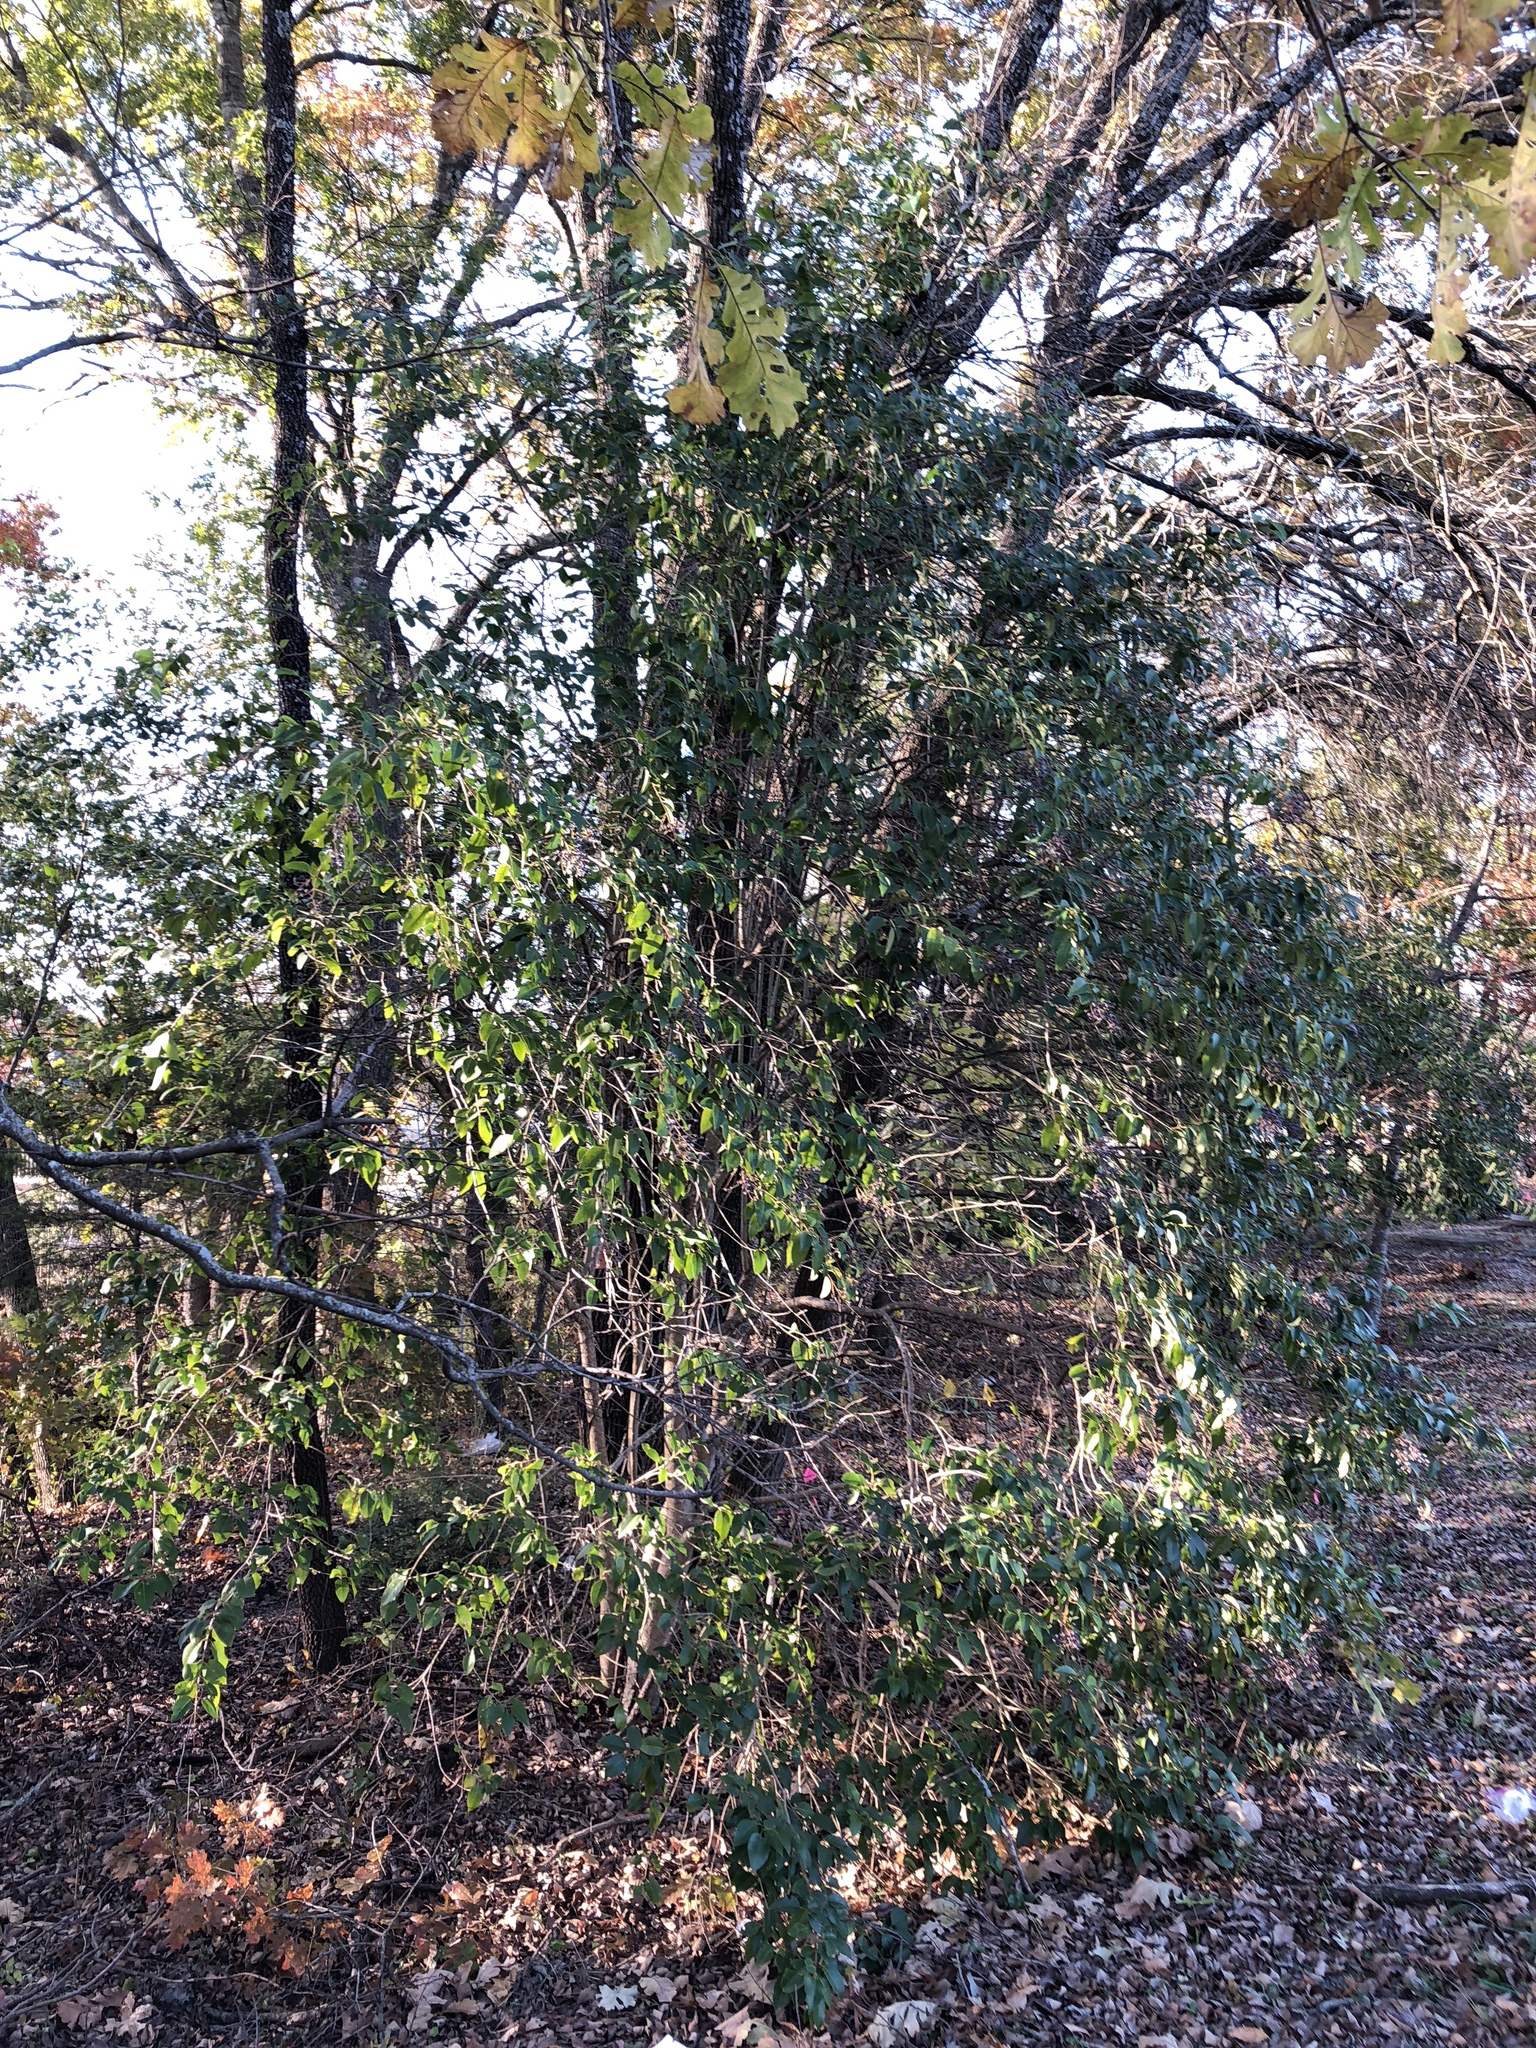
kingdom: Plantae
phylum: Tracheophyta
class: Magnoliopsida
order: Lamiales
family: Oleaceae
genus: Ligustrum
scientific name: Ligustrum lucidum
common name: Glossy privet
